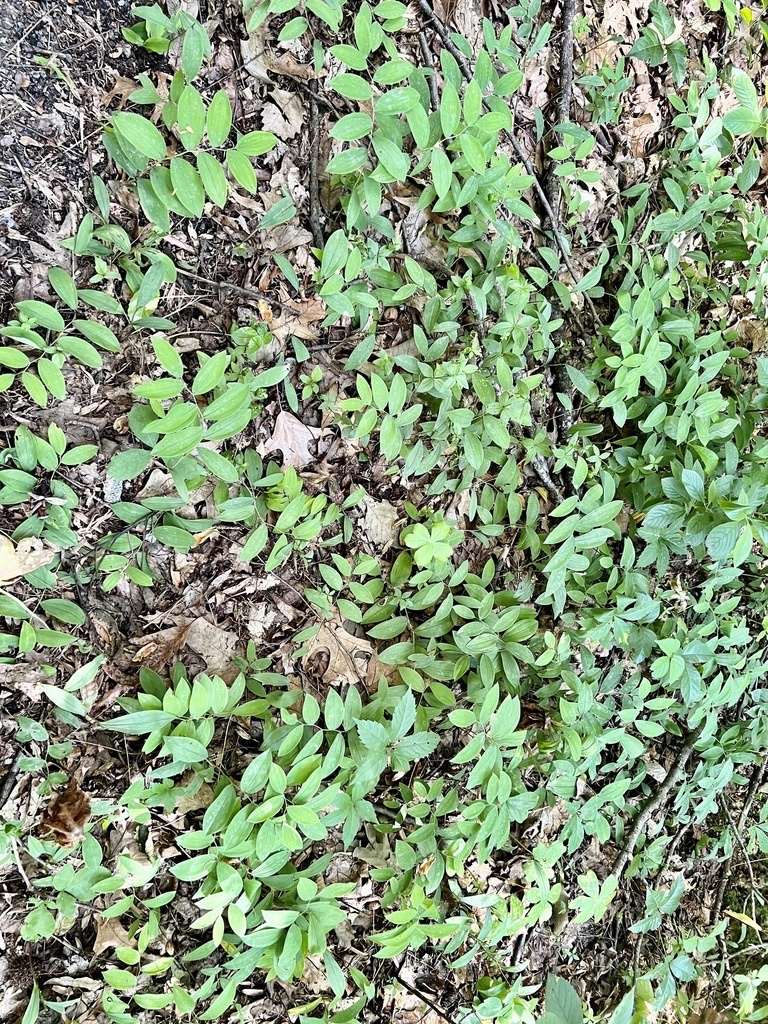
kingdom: Plantae
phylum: Tracheophyta
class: Liliopsida
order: Liliales
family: Colchicaceae
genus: Uvularia
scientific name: Uvularia sessilifolia
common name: Straw-lily
